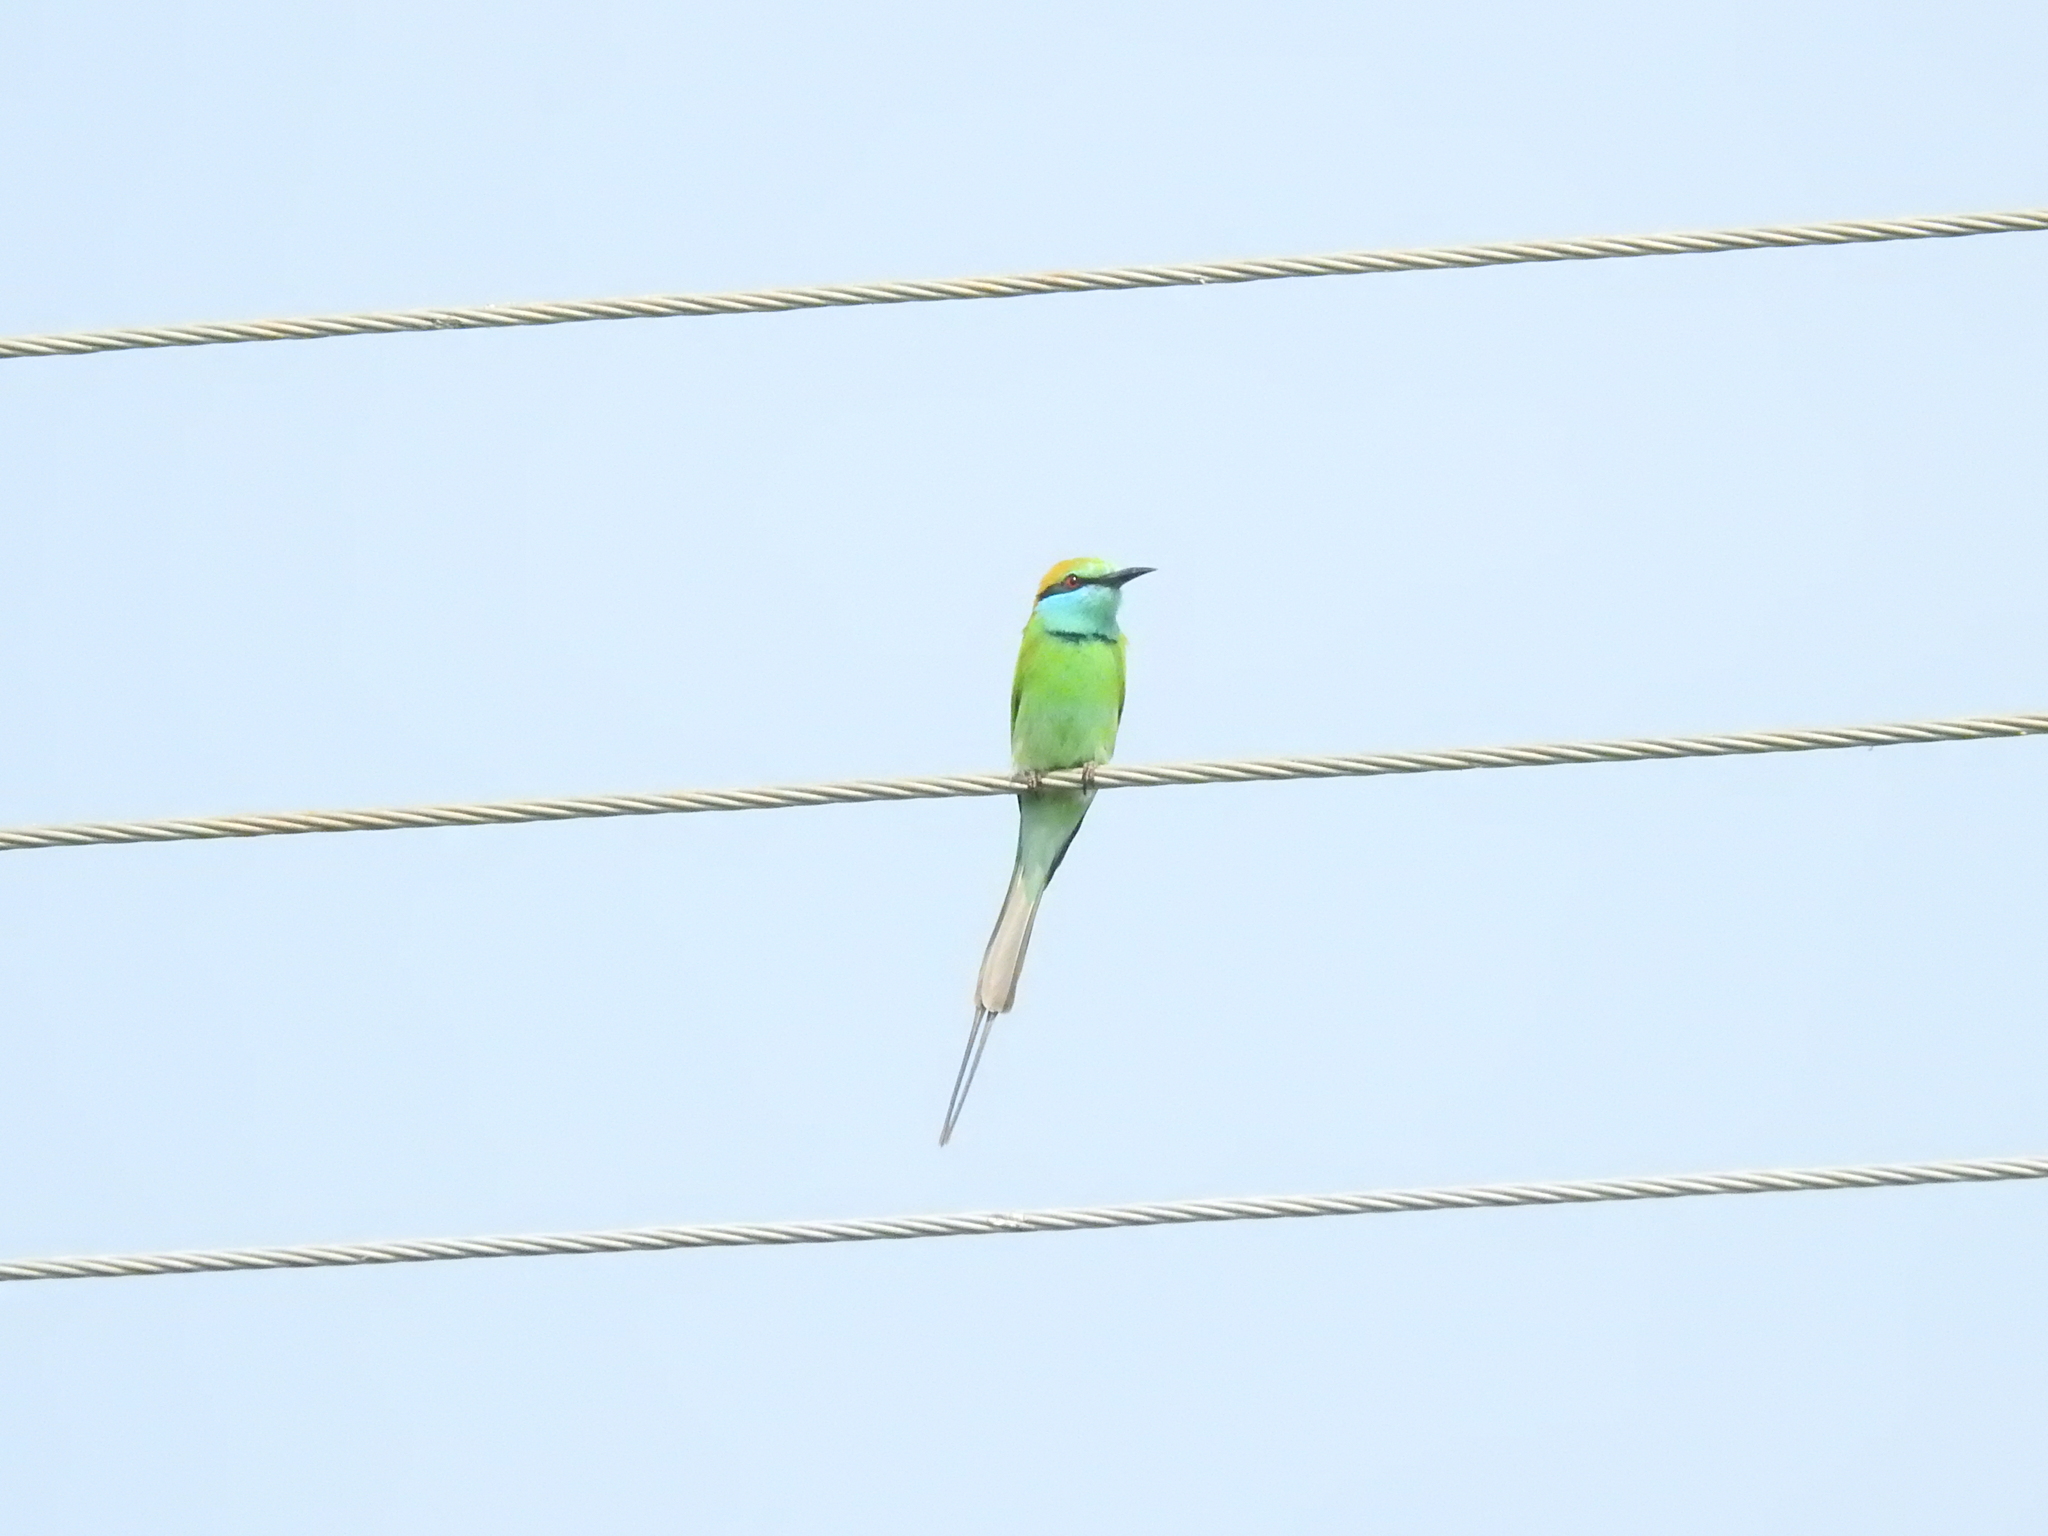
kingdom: Animalia
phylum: Chordata
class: Aves
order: Coraciiformes
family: Meropidae
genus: Merops
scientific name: Merops orientalis
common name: Green bee-eater
